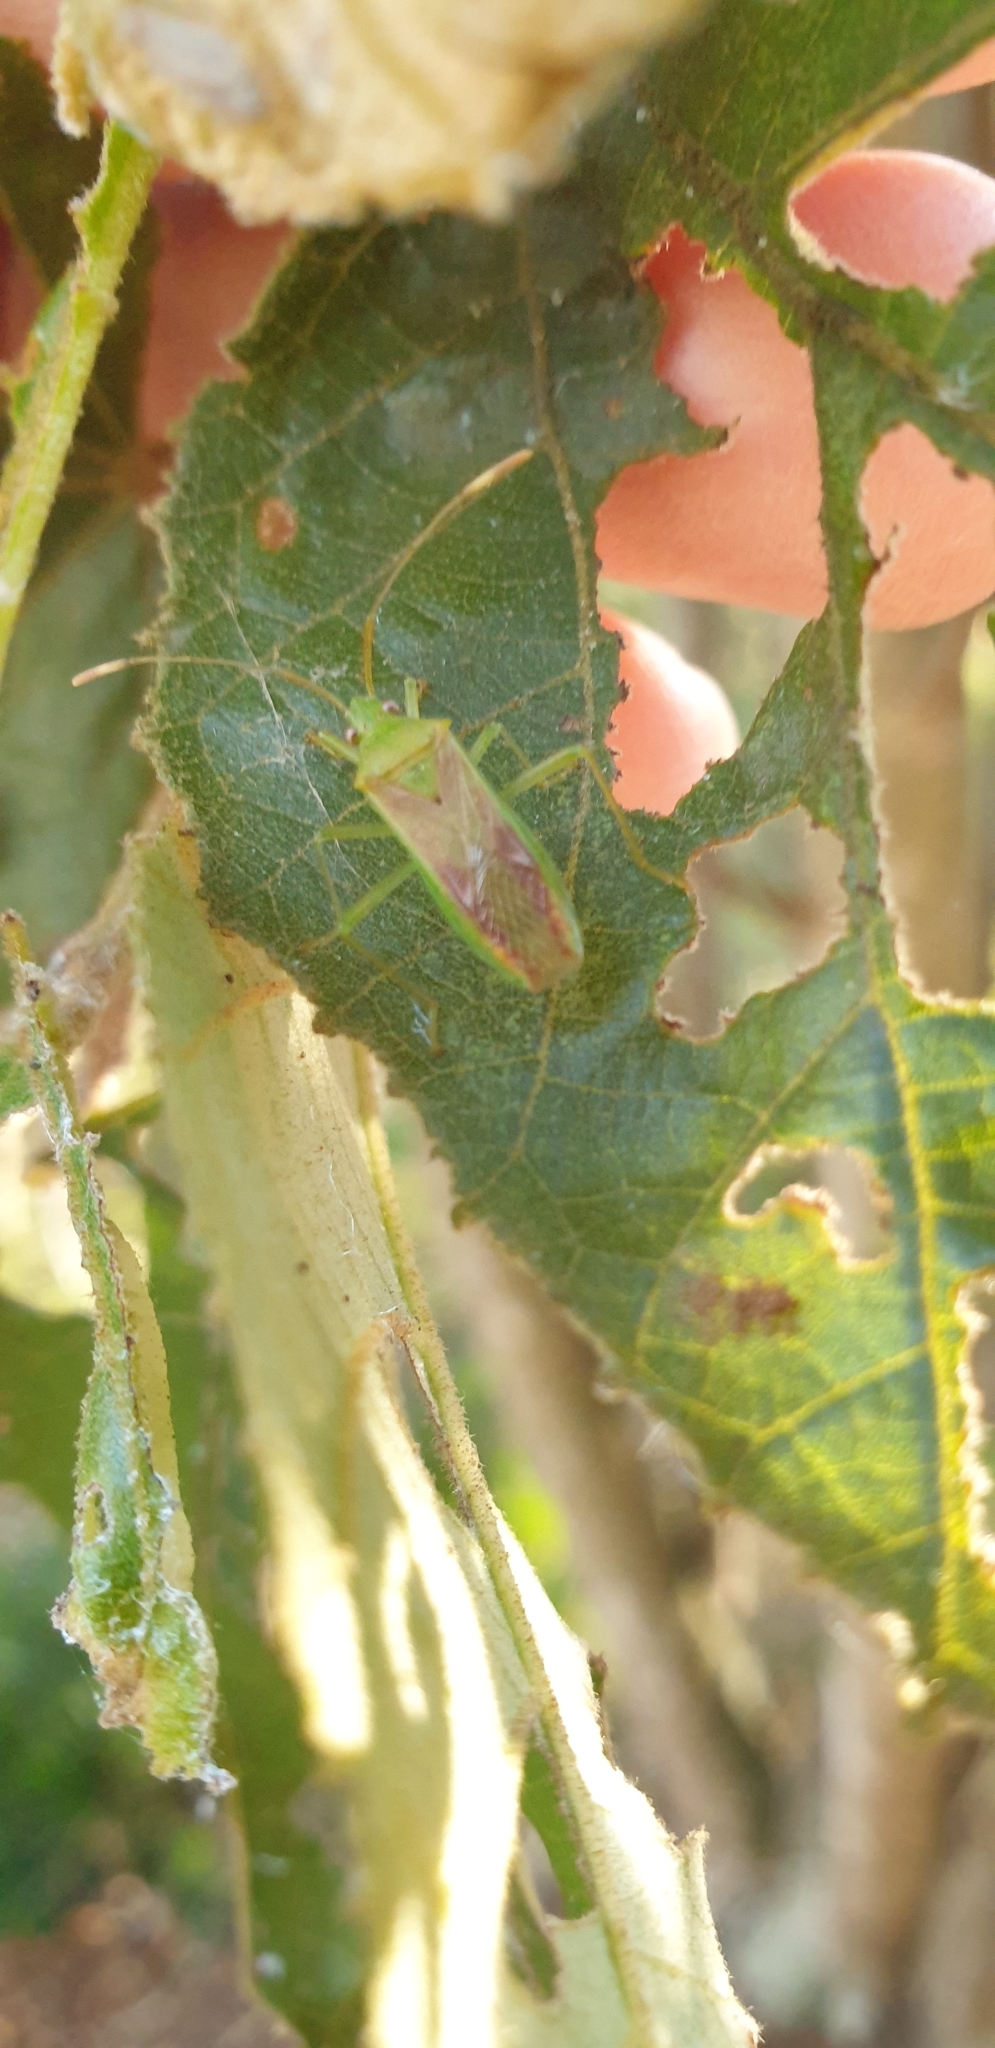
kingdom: Animalia
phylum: Arthropoda
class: Insecta
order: Hemiptera
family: Coreidae
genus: Amblypelta
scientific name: Amblypelta lutescens
